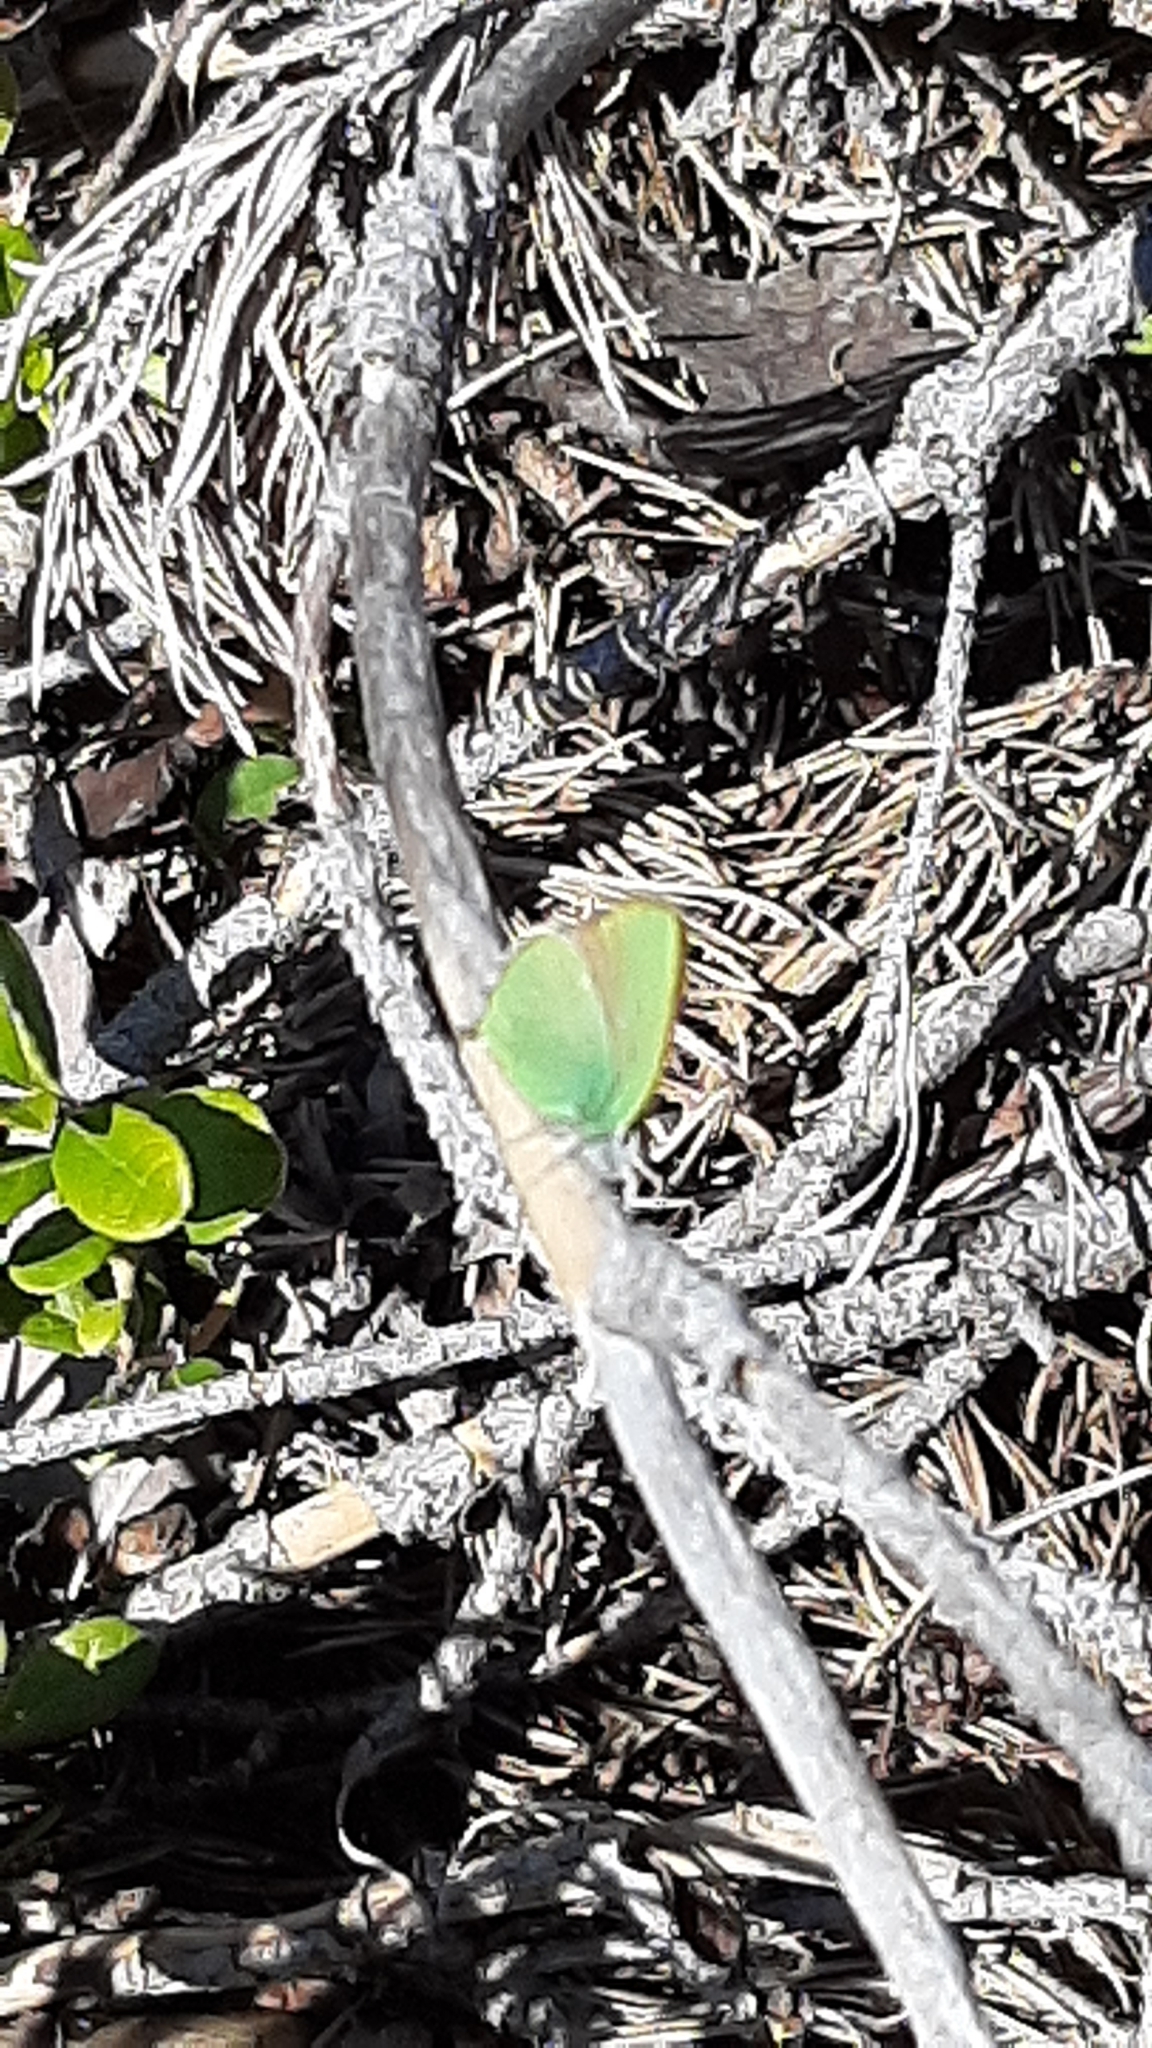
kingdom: Animalia
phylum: Arthropoda
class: Insecta
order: Lepidoptera
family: Lycaenidae
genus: Callophrys
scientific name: Callophrys rubi
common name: Green hairstreak
